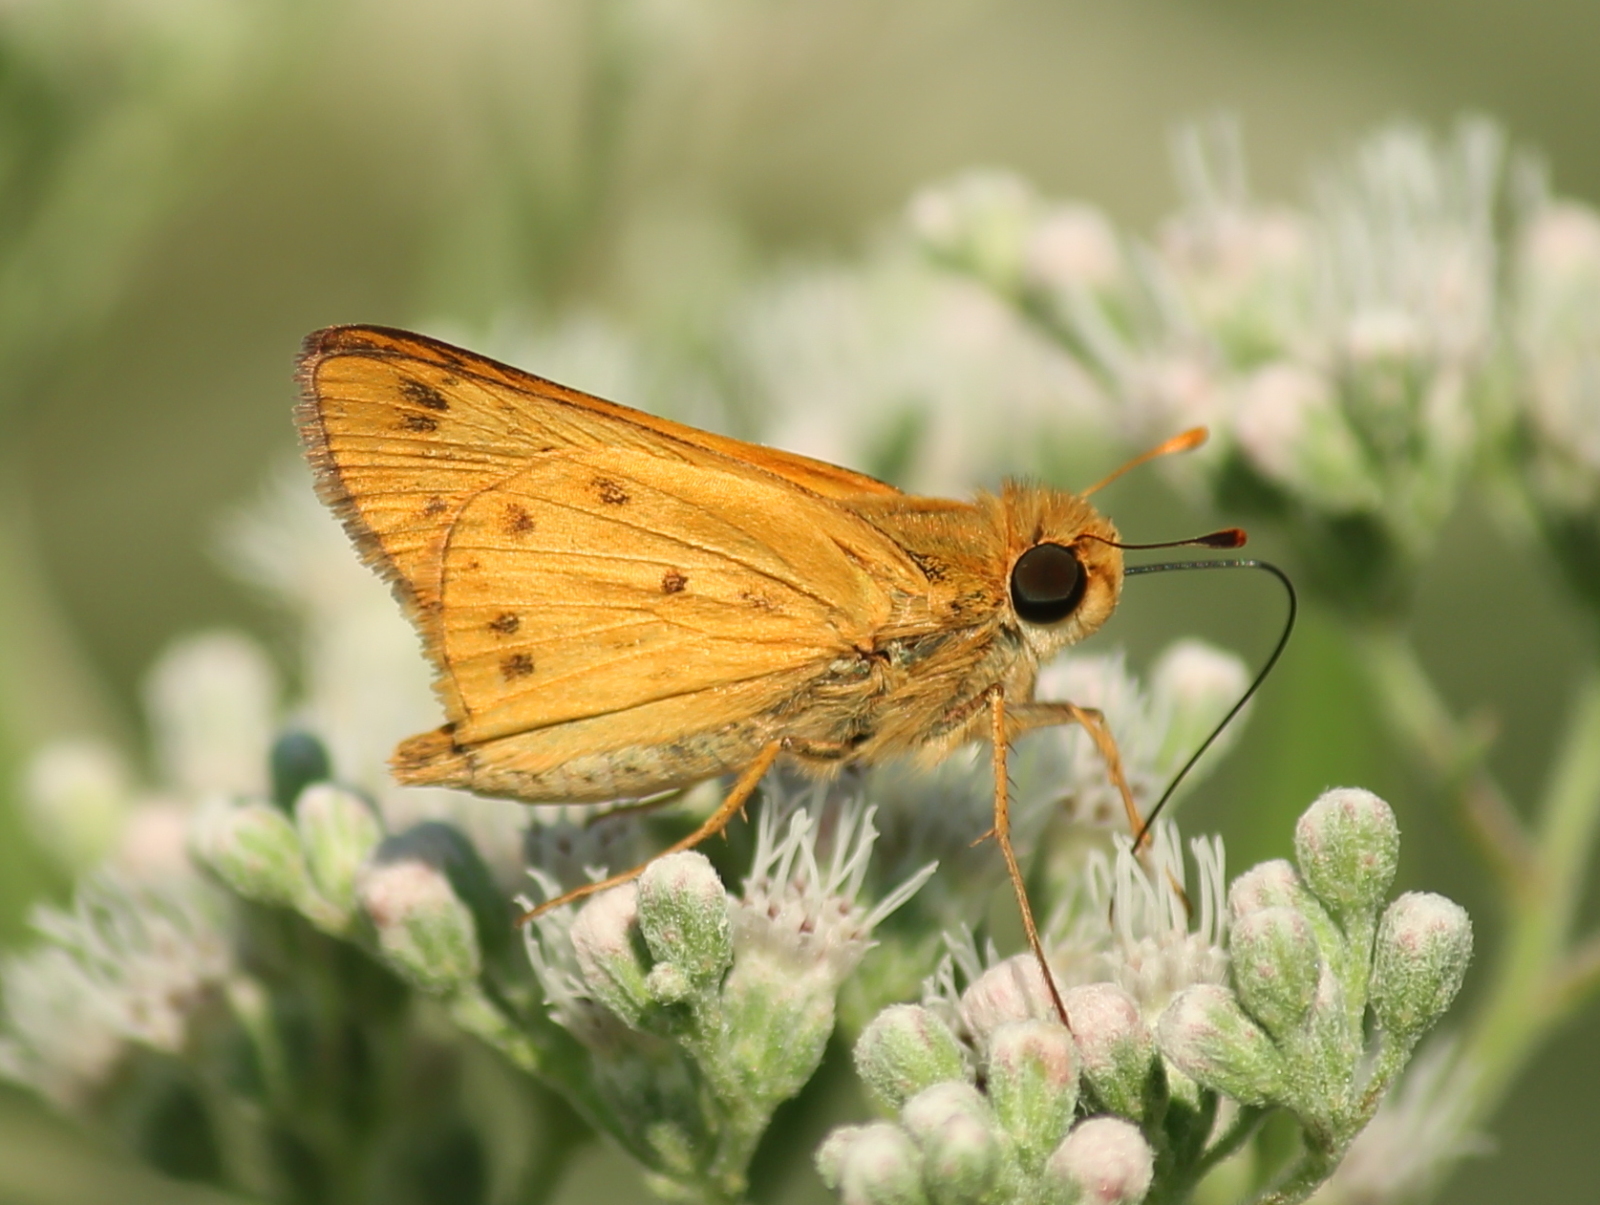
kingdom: Animalia
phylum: Arthropoda
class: Insecta
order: Lepidoptera
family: Hesperiidae
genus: Hylephila
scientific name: Hylephila phyleus
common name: Fiery skipper
